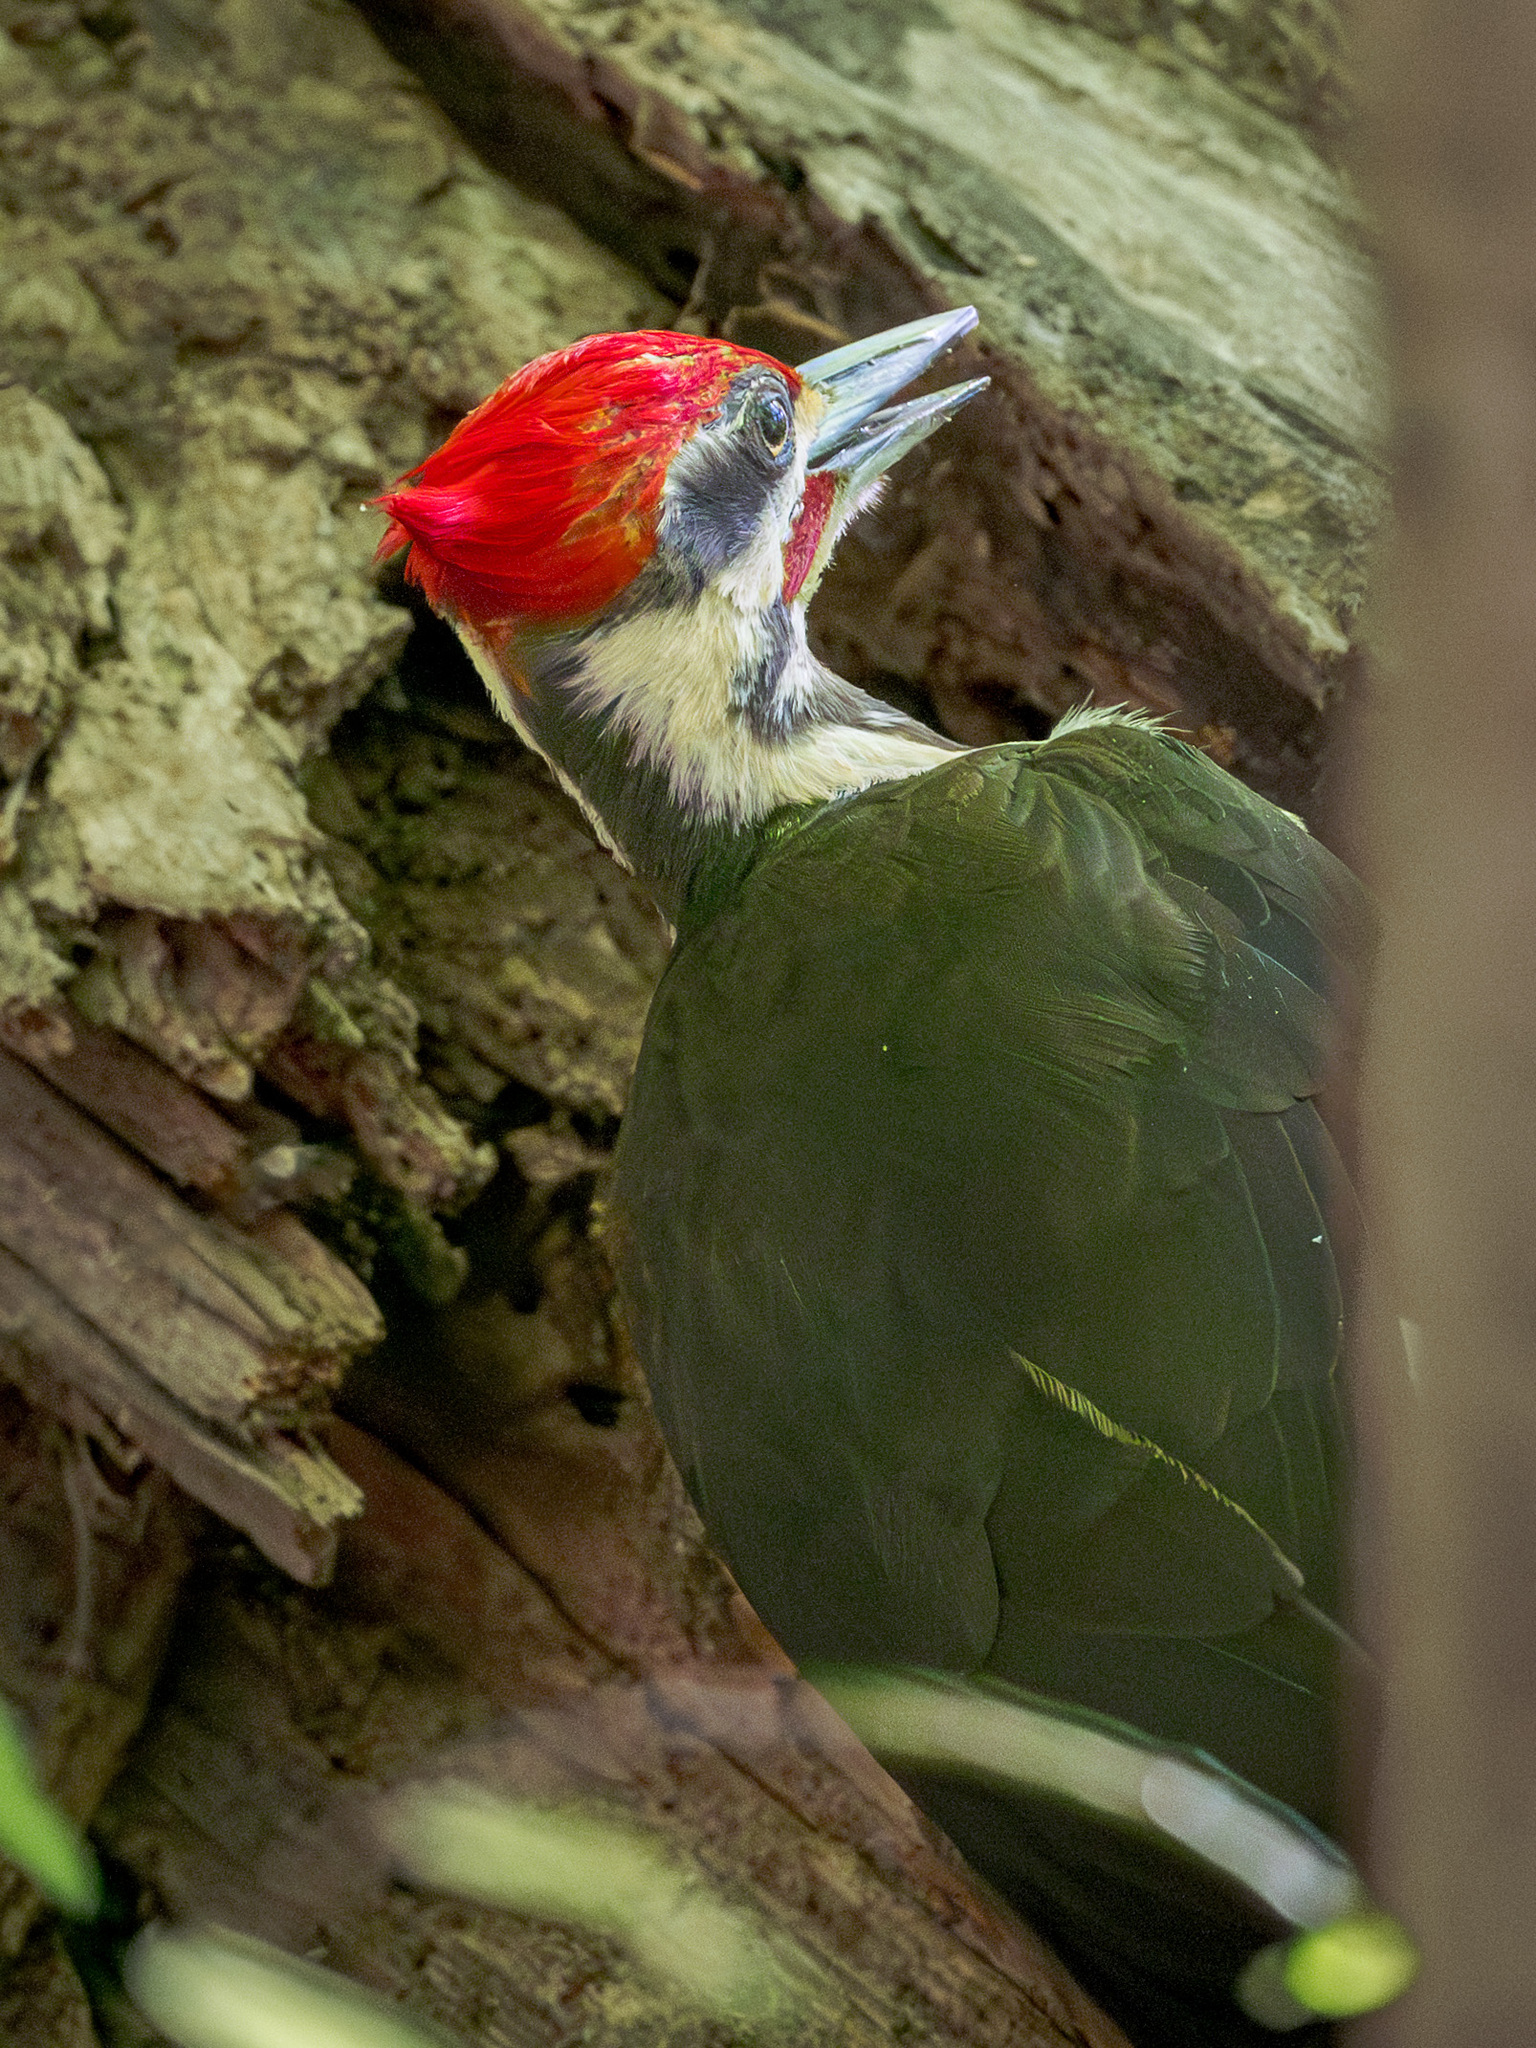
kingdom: Animalia
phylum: Chordata
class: Aves
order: Piciformes
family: Picidae
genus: Dryocopus
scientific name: Dryocopus pileatus
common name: Pileated woodpecker
